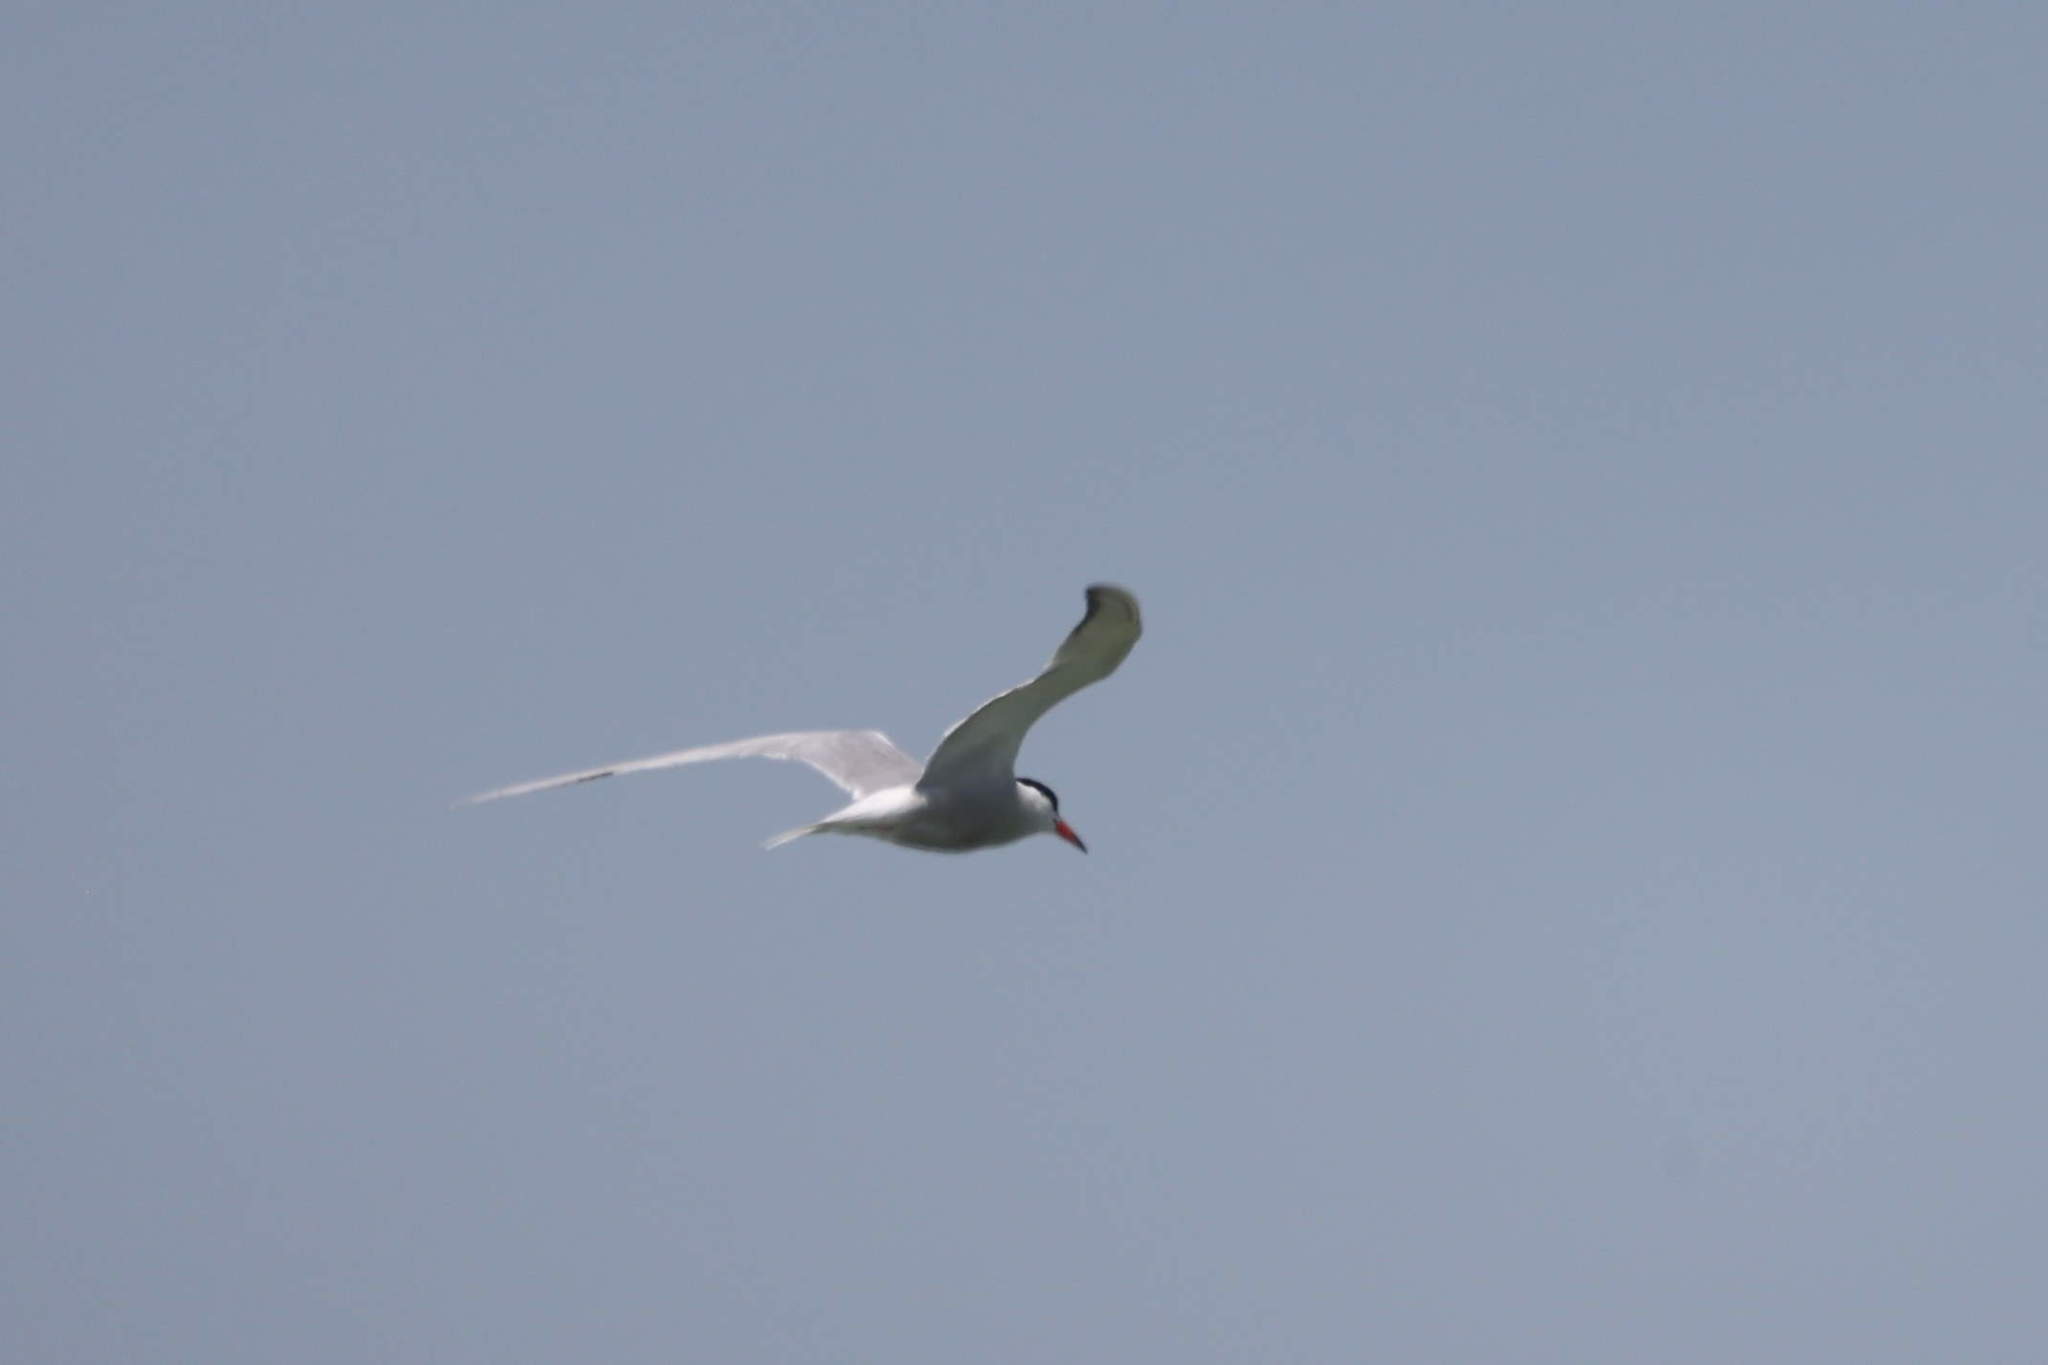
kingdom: Animalia
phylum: Chordata
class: Aves
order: Charadriiformes
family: Laridae
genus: Sterna
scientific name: Sterna hirundo
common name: Common tern
